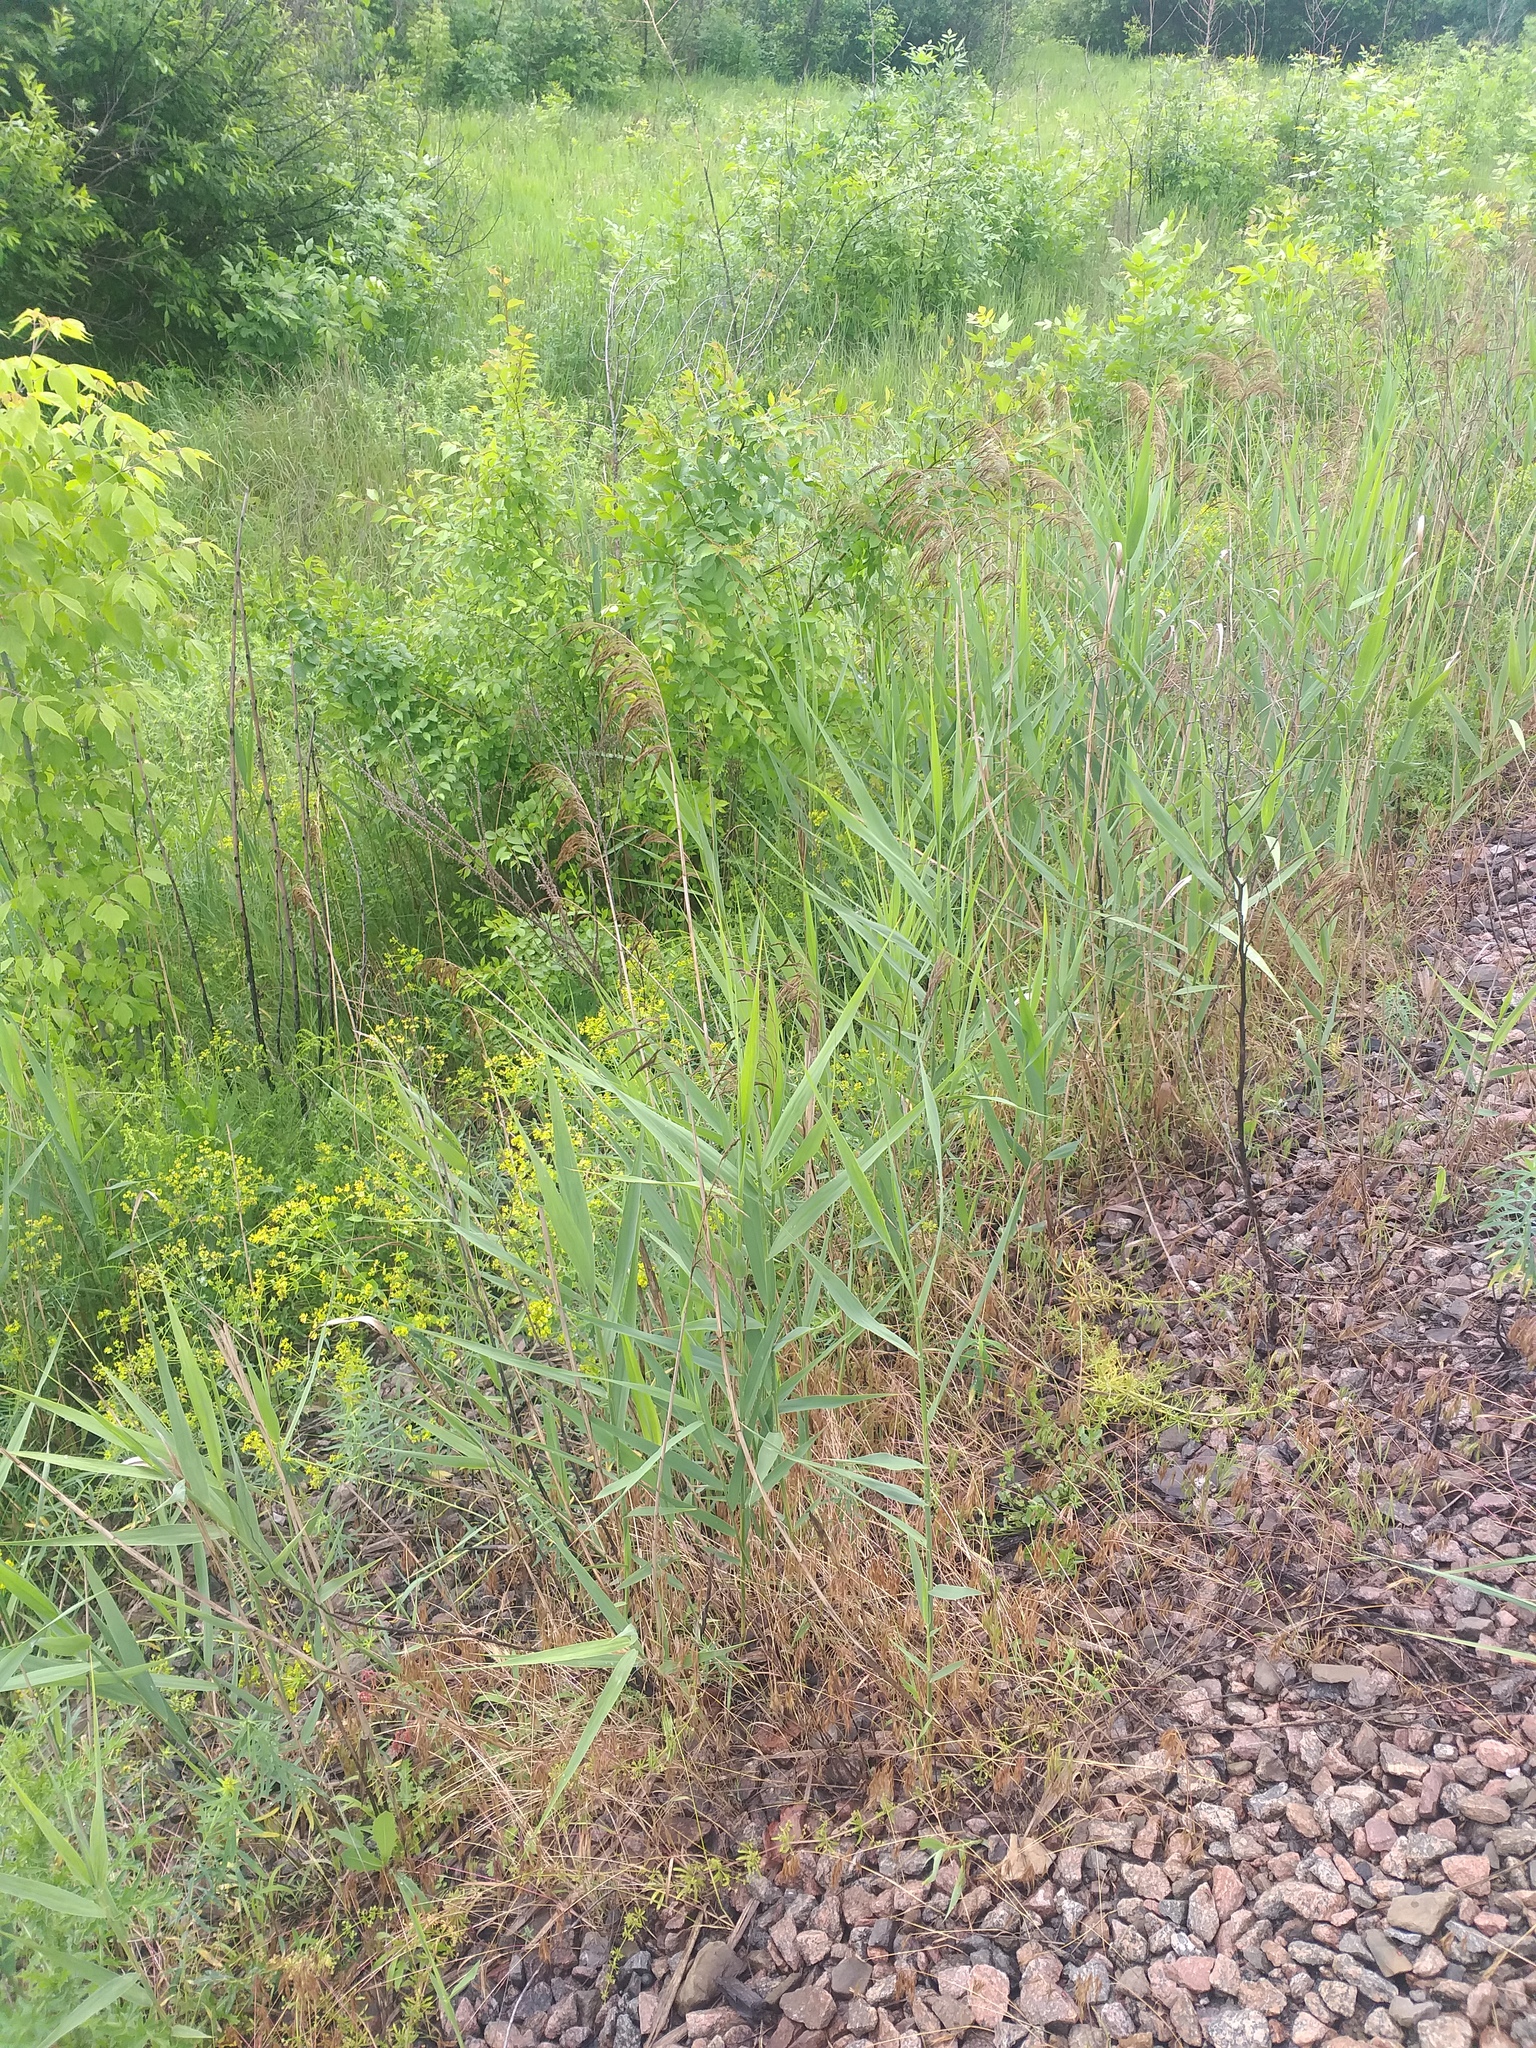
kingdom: Plantae
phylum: Tracheophyta
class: Liliopsida
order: Poales
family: Poaceae
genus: Phragmites
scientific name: Phragmites australis
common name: Common reed
